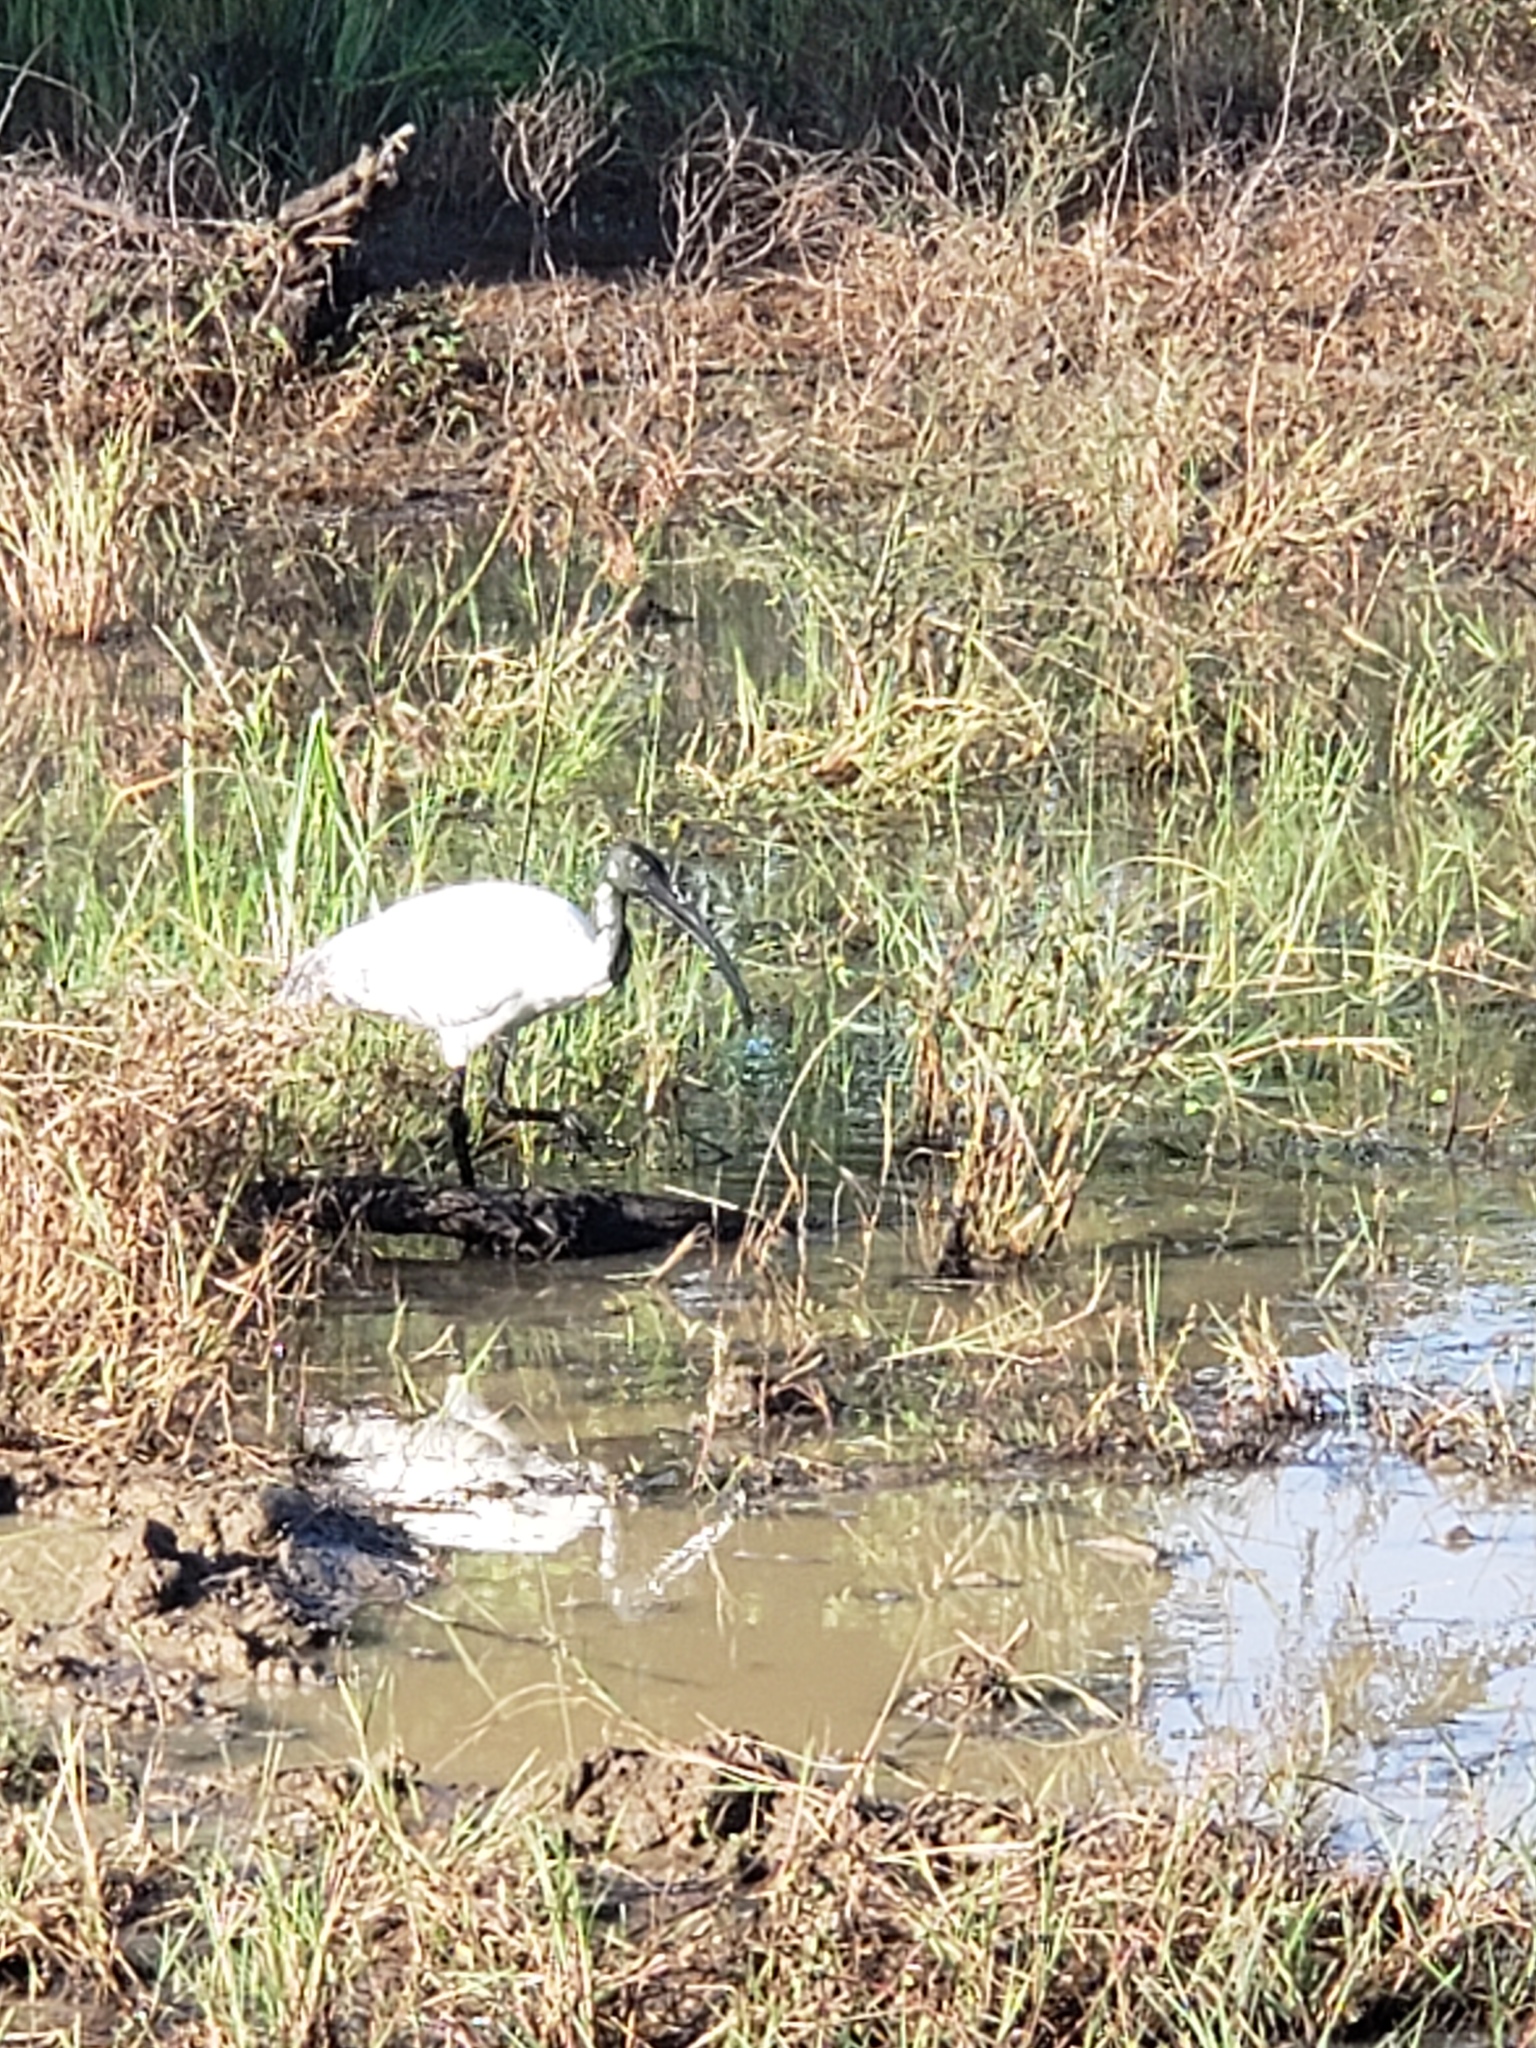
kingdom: Animalia
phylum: Chordata
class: Aves
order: Pelecaniformes
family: Threskiornithidae
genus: Threskiornis
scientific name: Threskiornis melanocephalus
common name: Black-headed ibis
